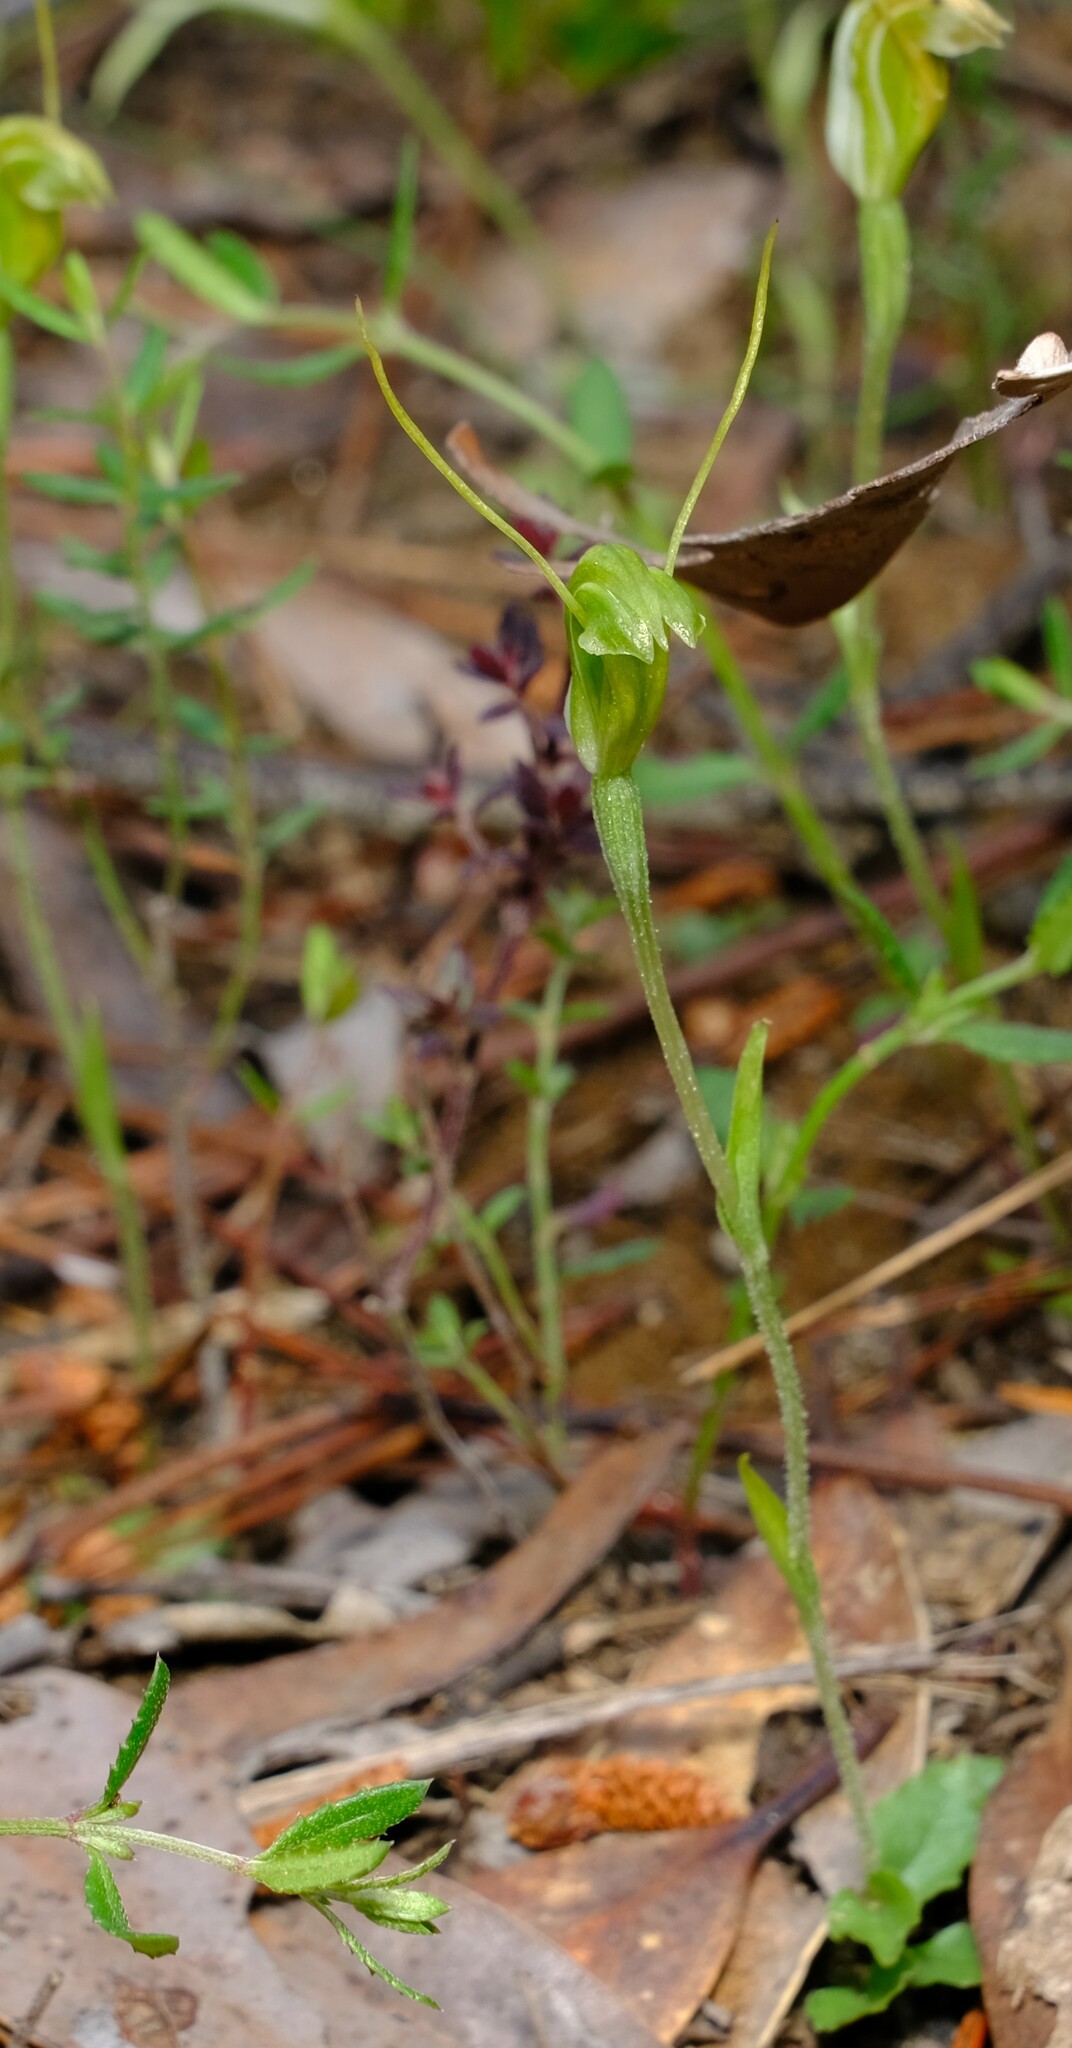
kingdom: Plantae
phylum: Tracheophyta
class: Liliopsida
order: Asparagales
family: Orchidaceae
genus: Pterostylis
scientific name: Pterostylis nana
